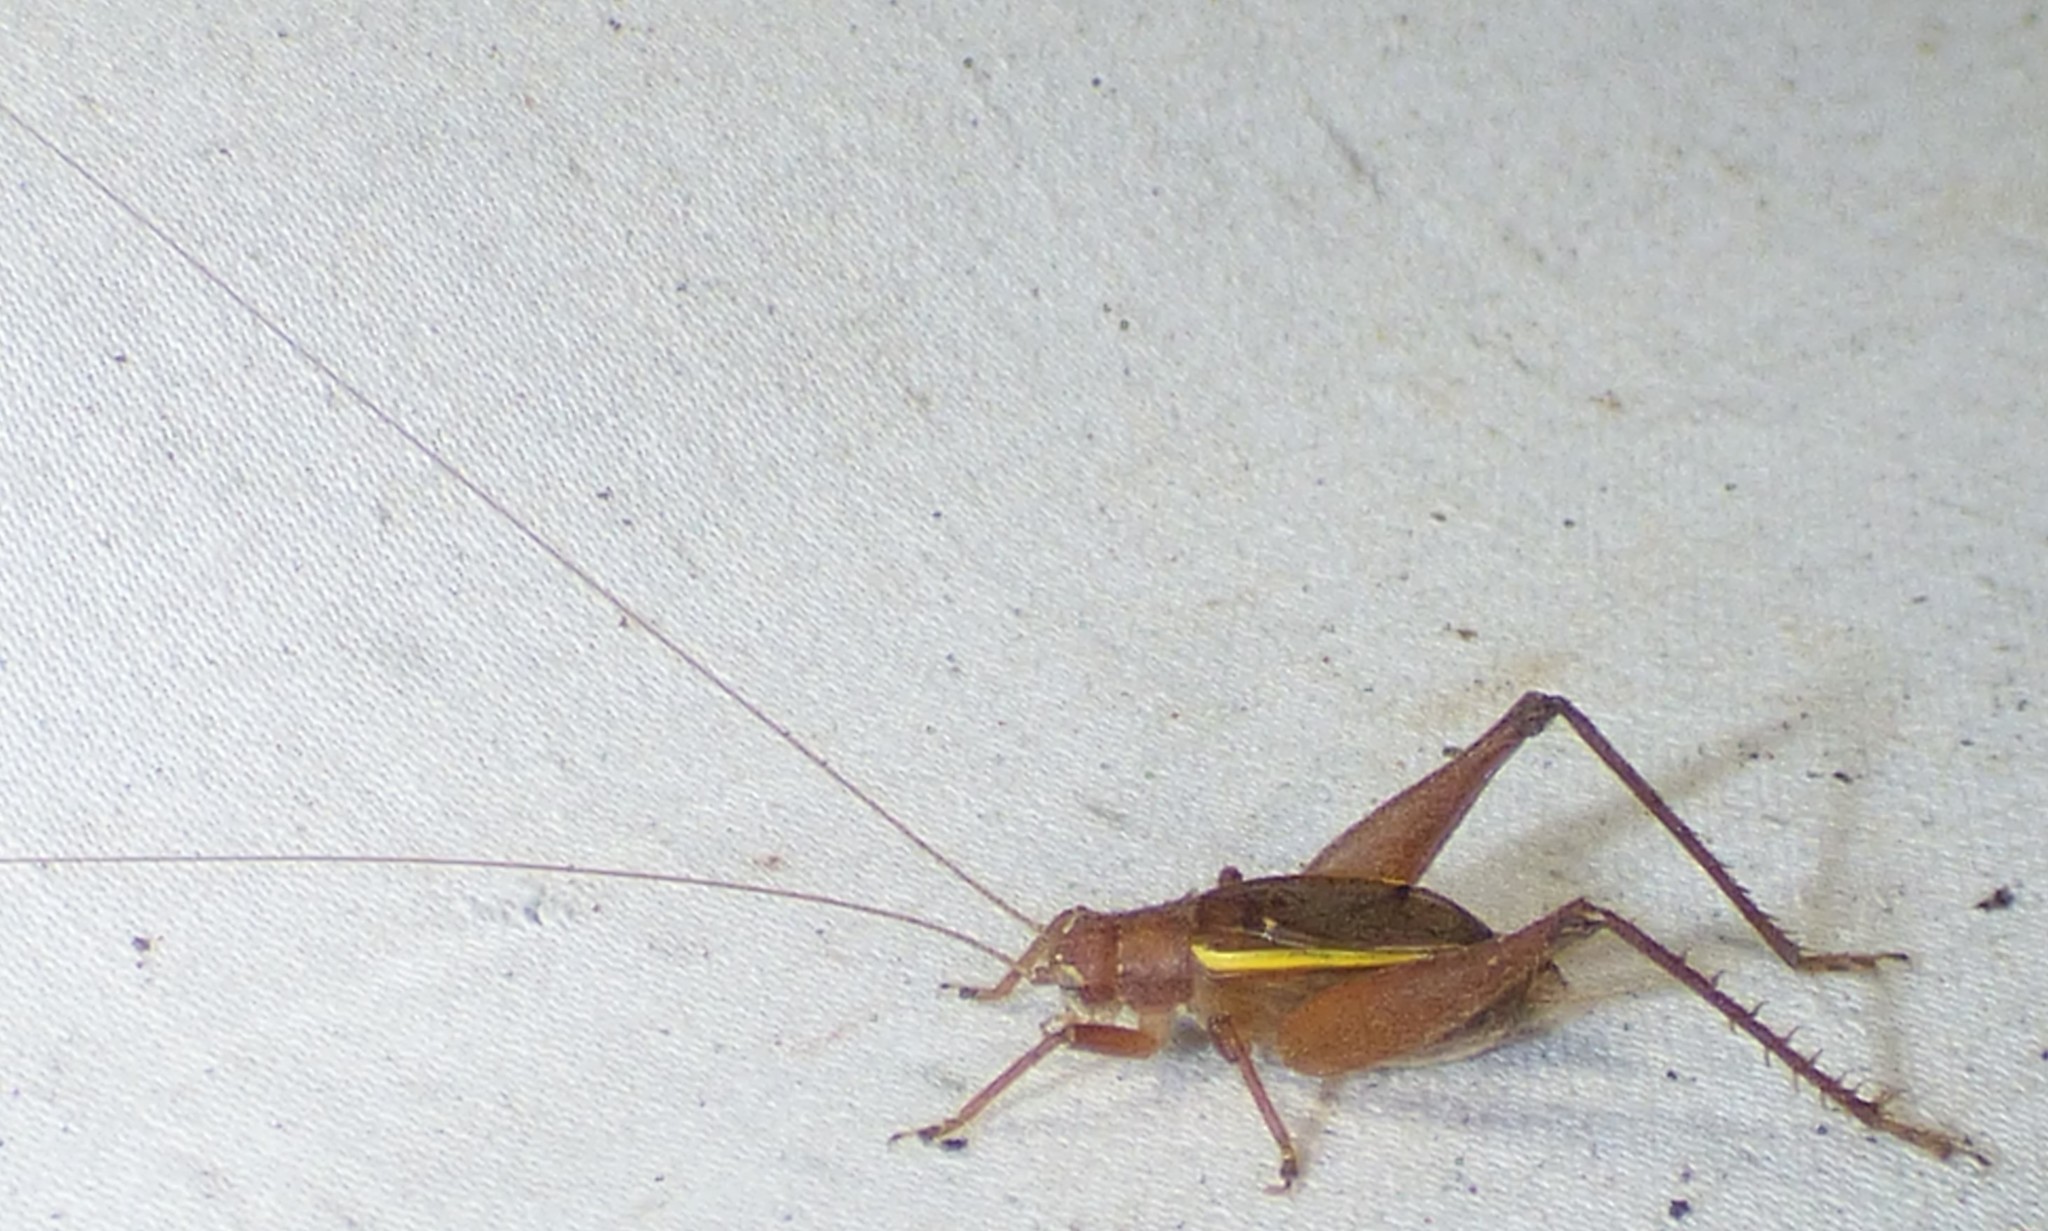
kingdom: Animalia
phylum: Arthropoda
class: Insecta
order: Orthoptera
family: Gryllidae
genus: Hapithus
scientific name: Hapithus agitator
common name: Restless bush cricket
